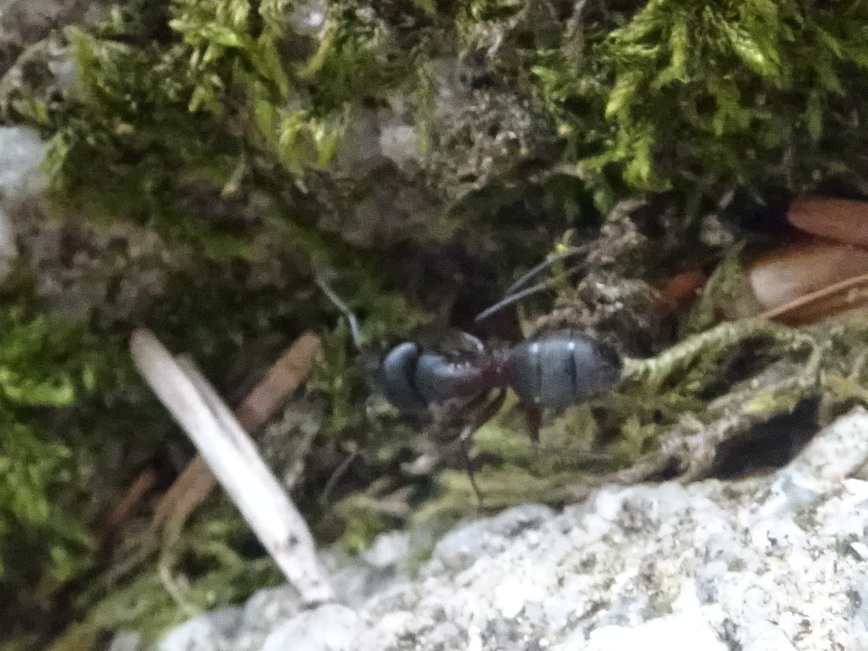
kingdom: Animalia
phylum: Arthropoda
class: Insecta
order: Hymenoptera
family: Formicidae
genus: Camponotus
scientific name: Camponotus herculeanus
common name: Hercules ant
